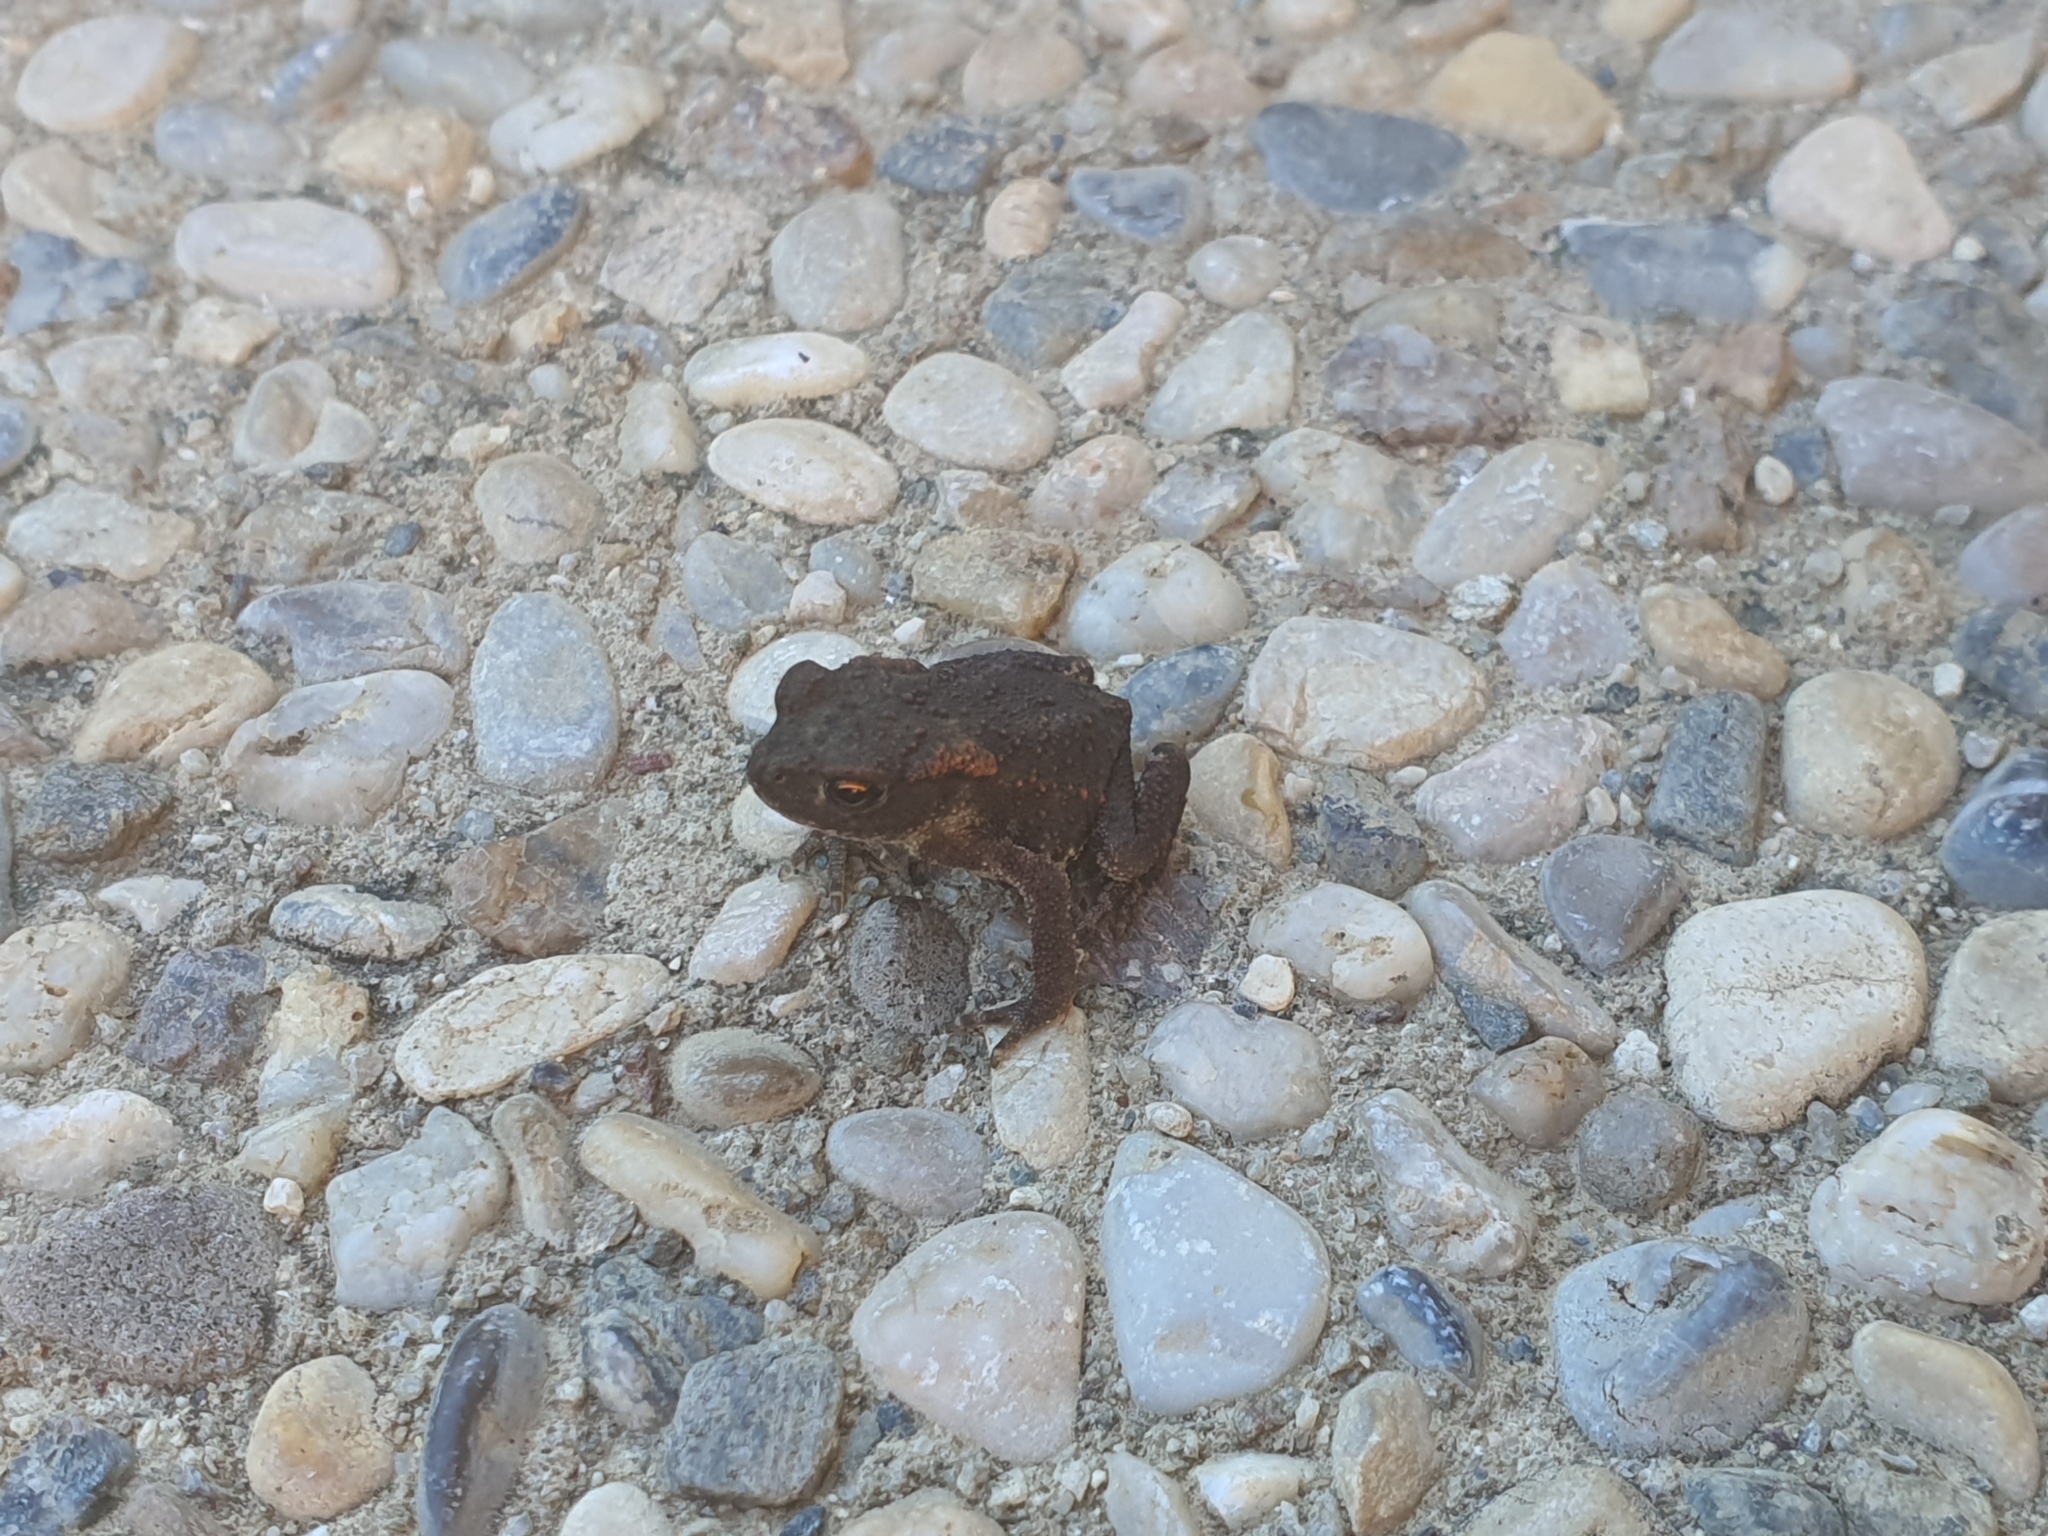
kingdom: Animalia
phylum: Chordata
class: Amphibia
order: Anura
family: Bufonidae
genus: Bufo
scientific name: Bufo bufo
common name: Common toad
